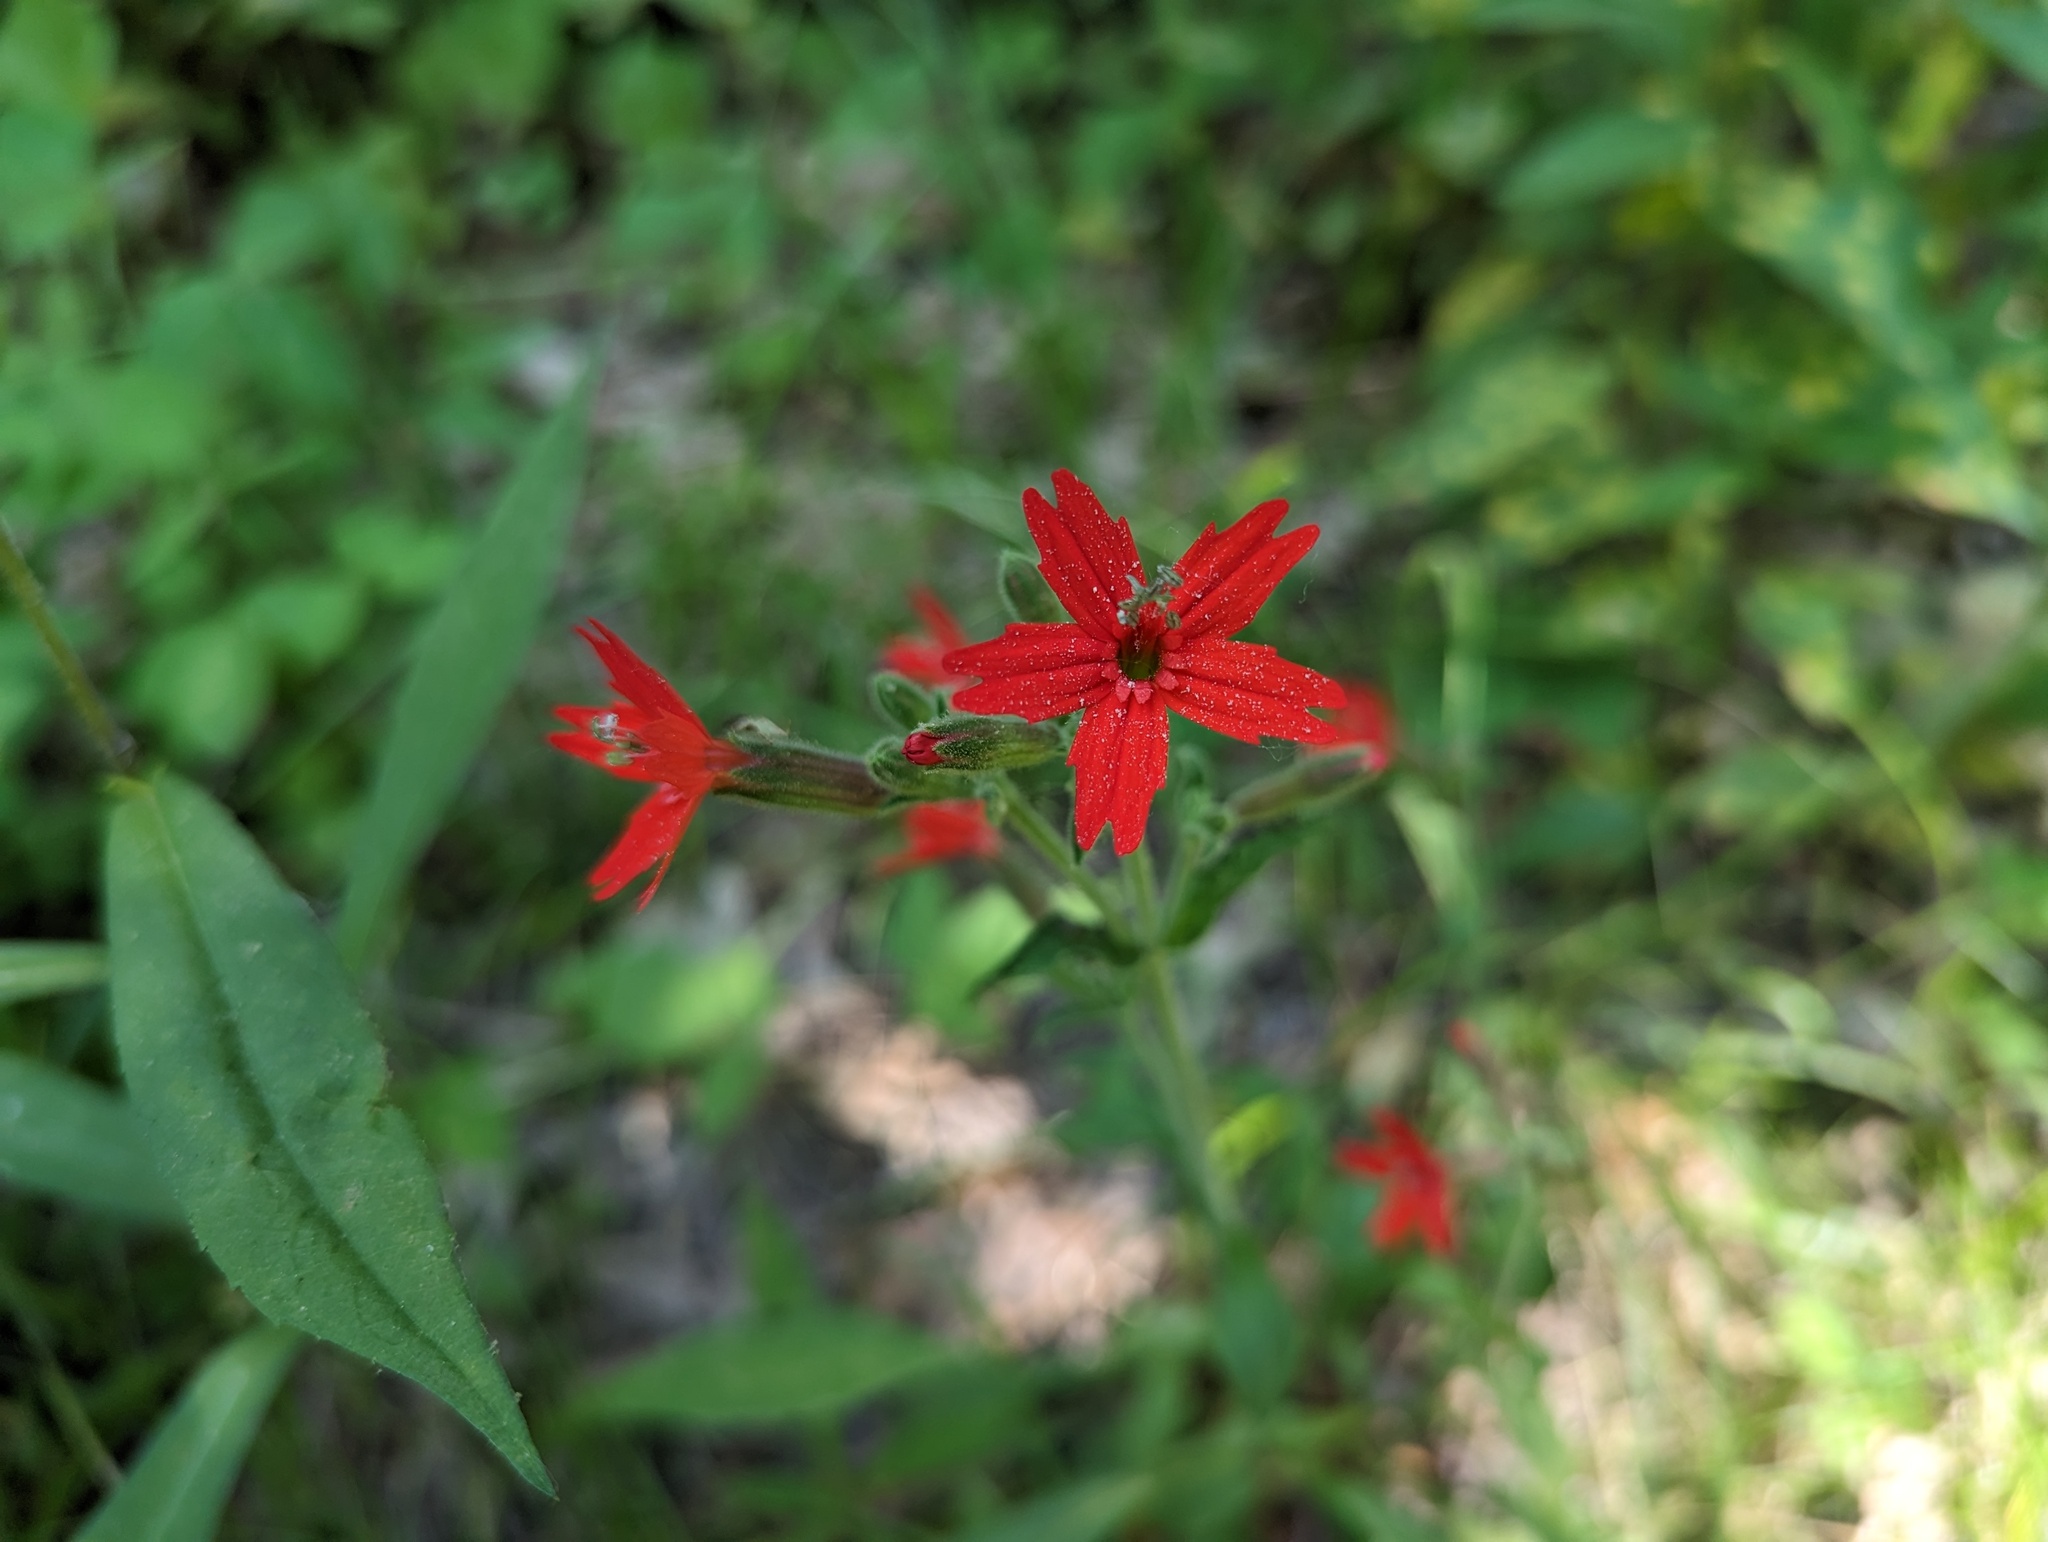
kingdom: Plantae
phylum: Tracheophyta
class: Magnoliopsida
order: Caryophyllales
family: Caryophyllaceae
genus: Silene
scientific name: Silene virginica
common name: Fire-pink
